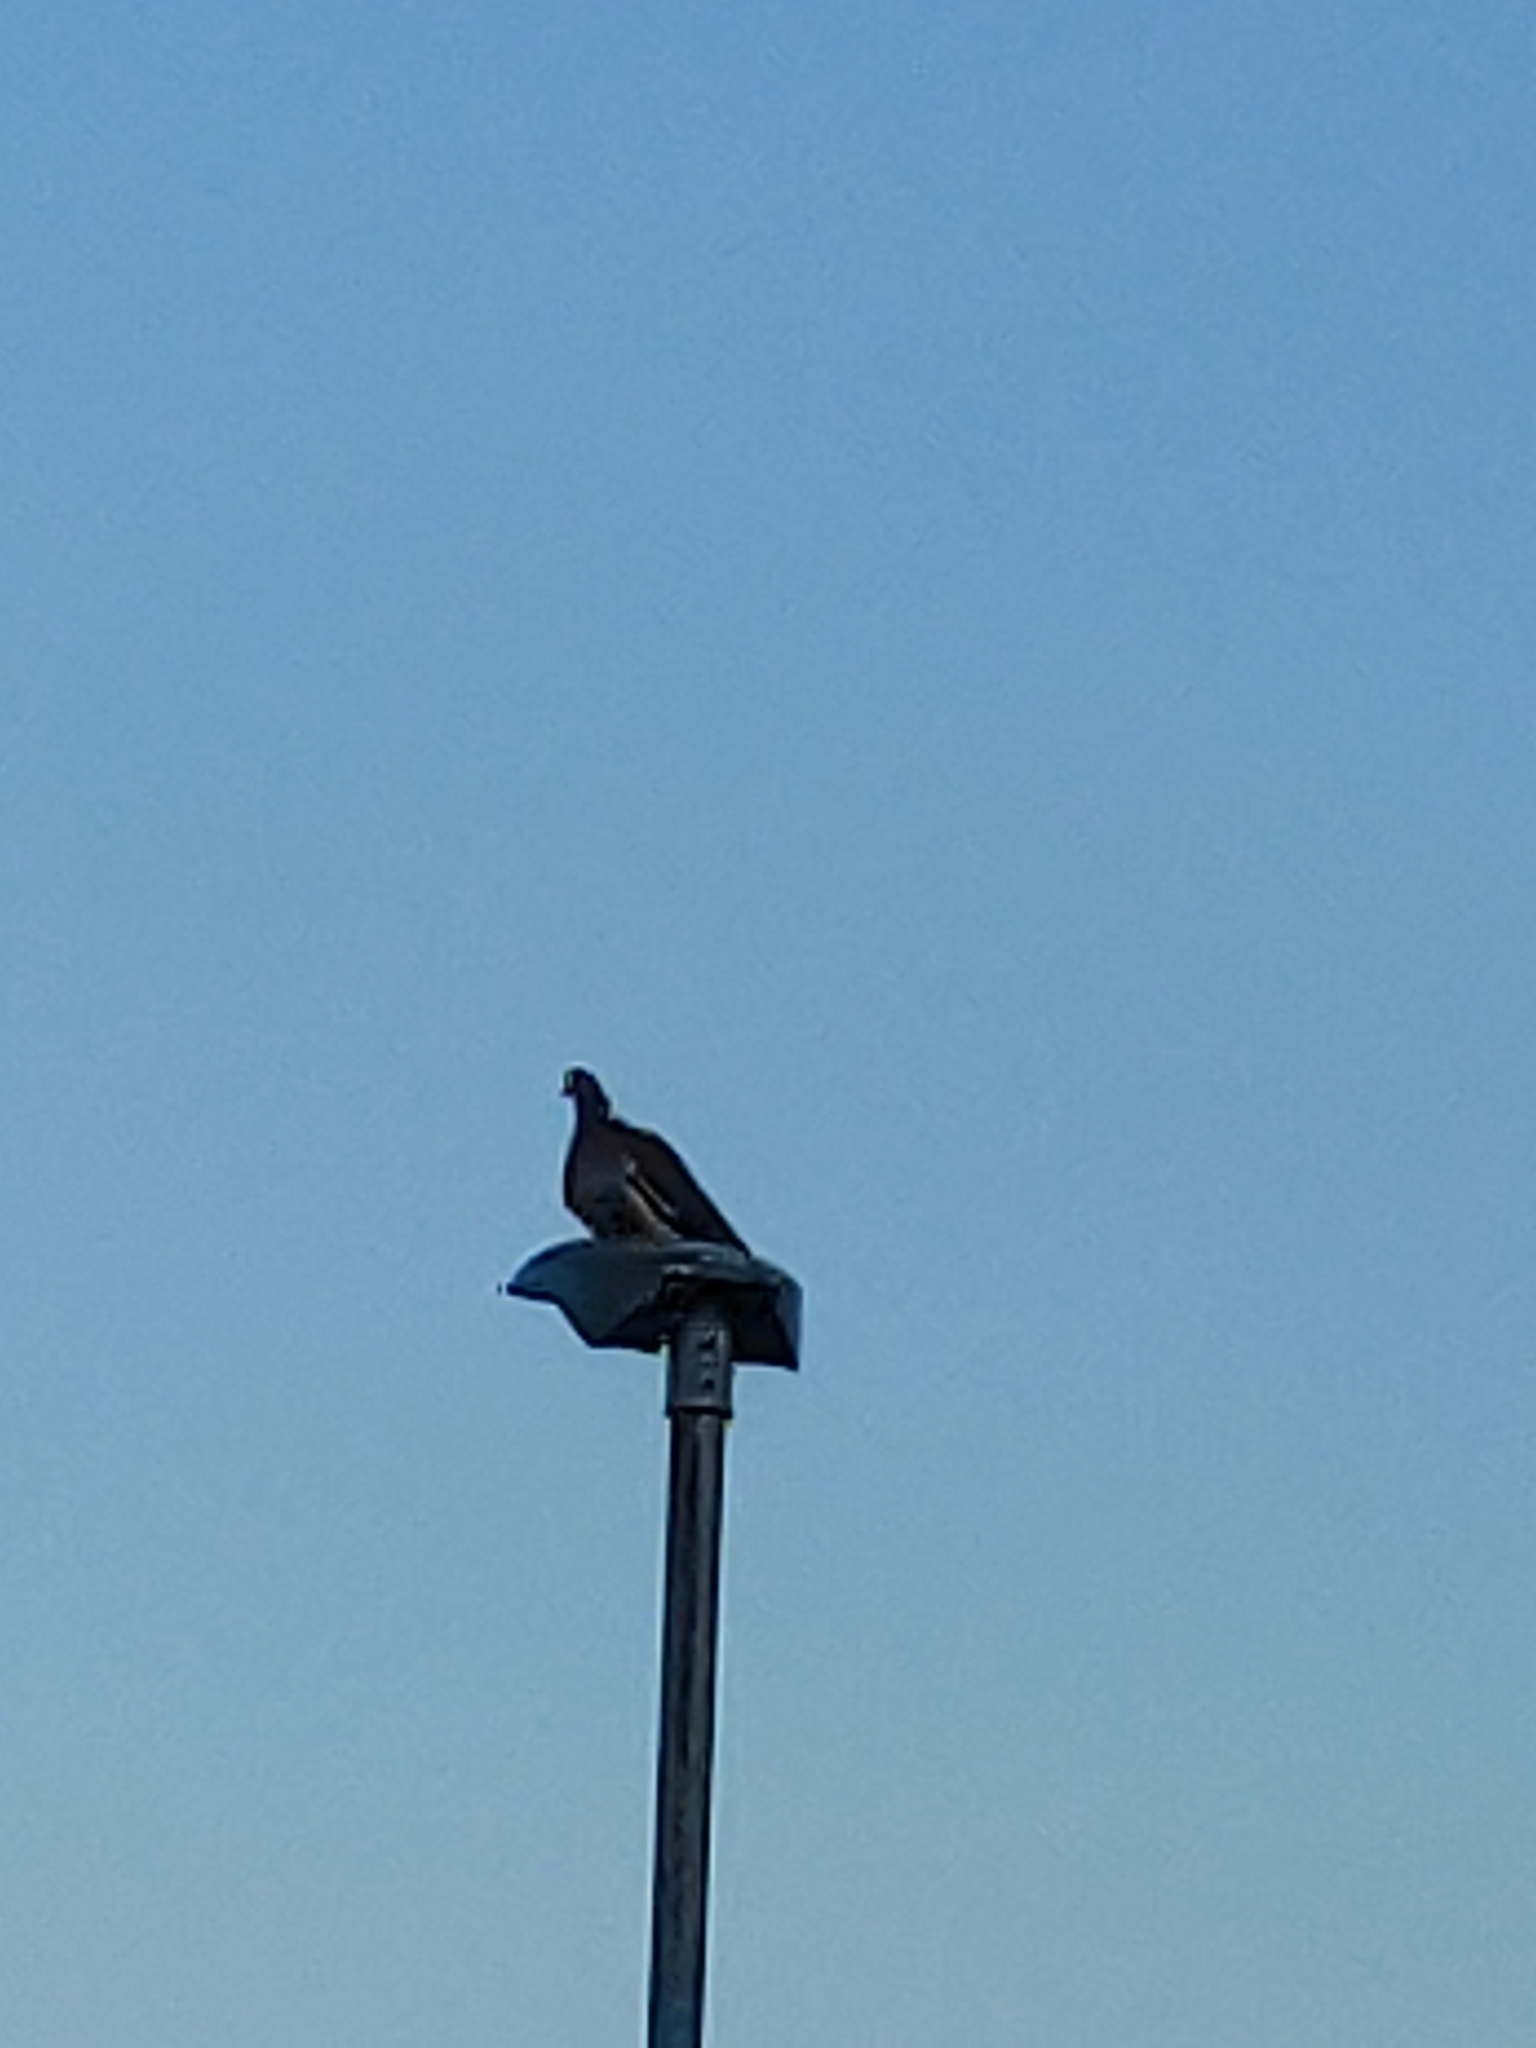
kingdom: Animalia
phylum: Chordata
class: Aves
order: Columbiformes
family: Columbidae
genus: Columba
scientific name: Columba palumbus
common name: Common wood pigeon
